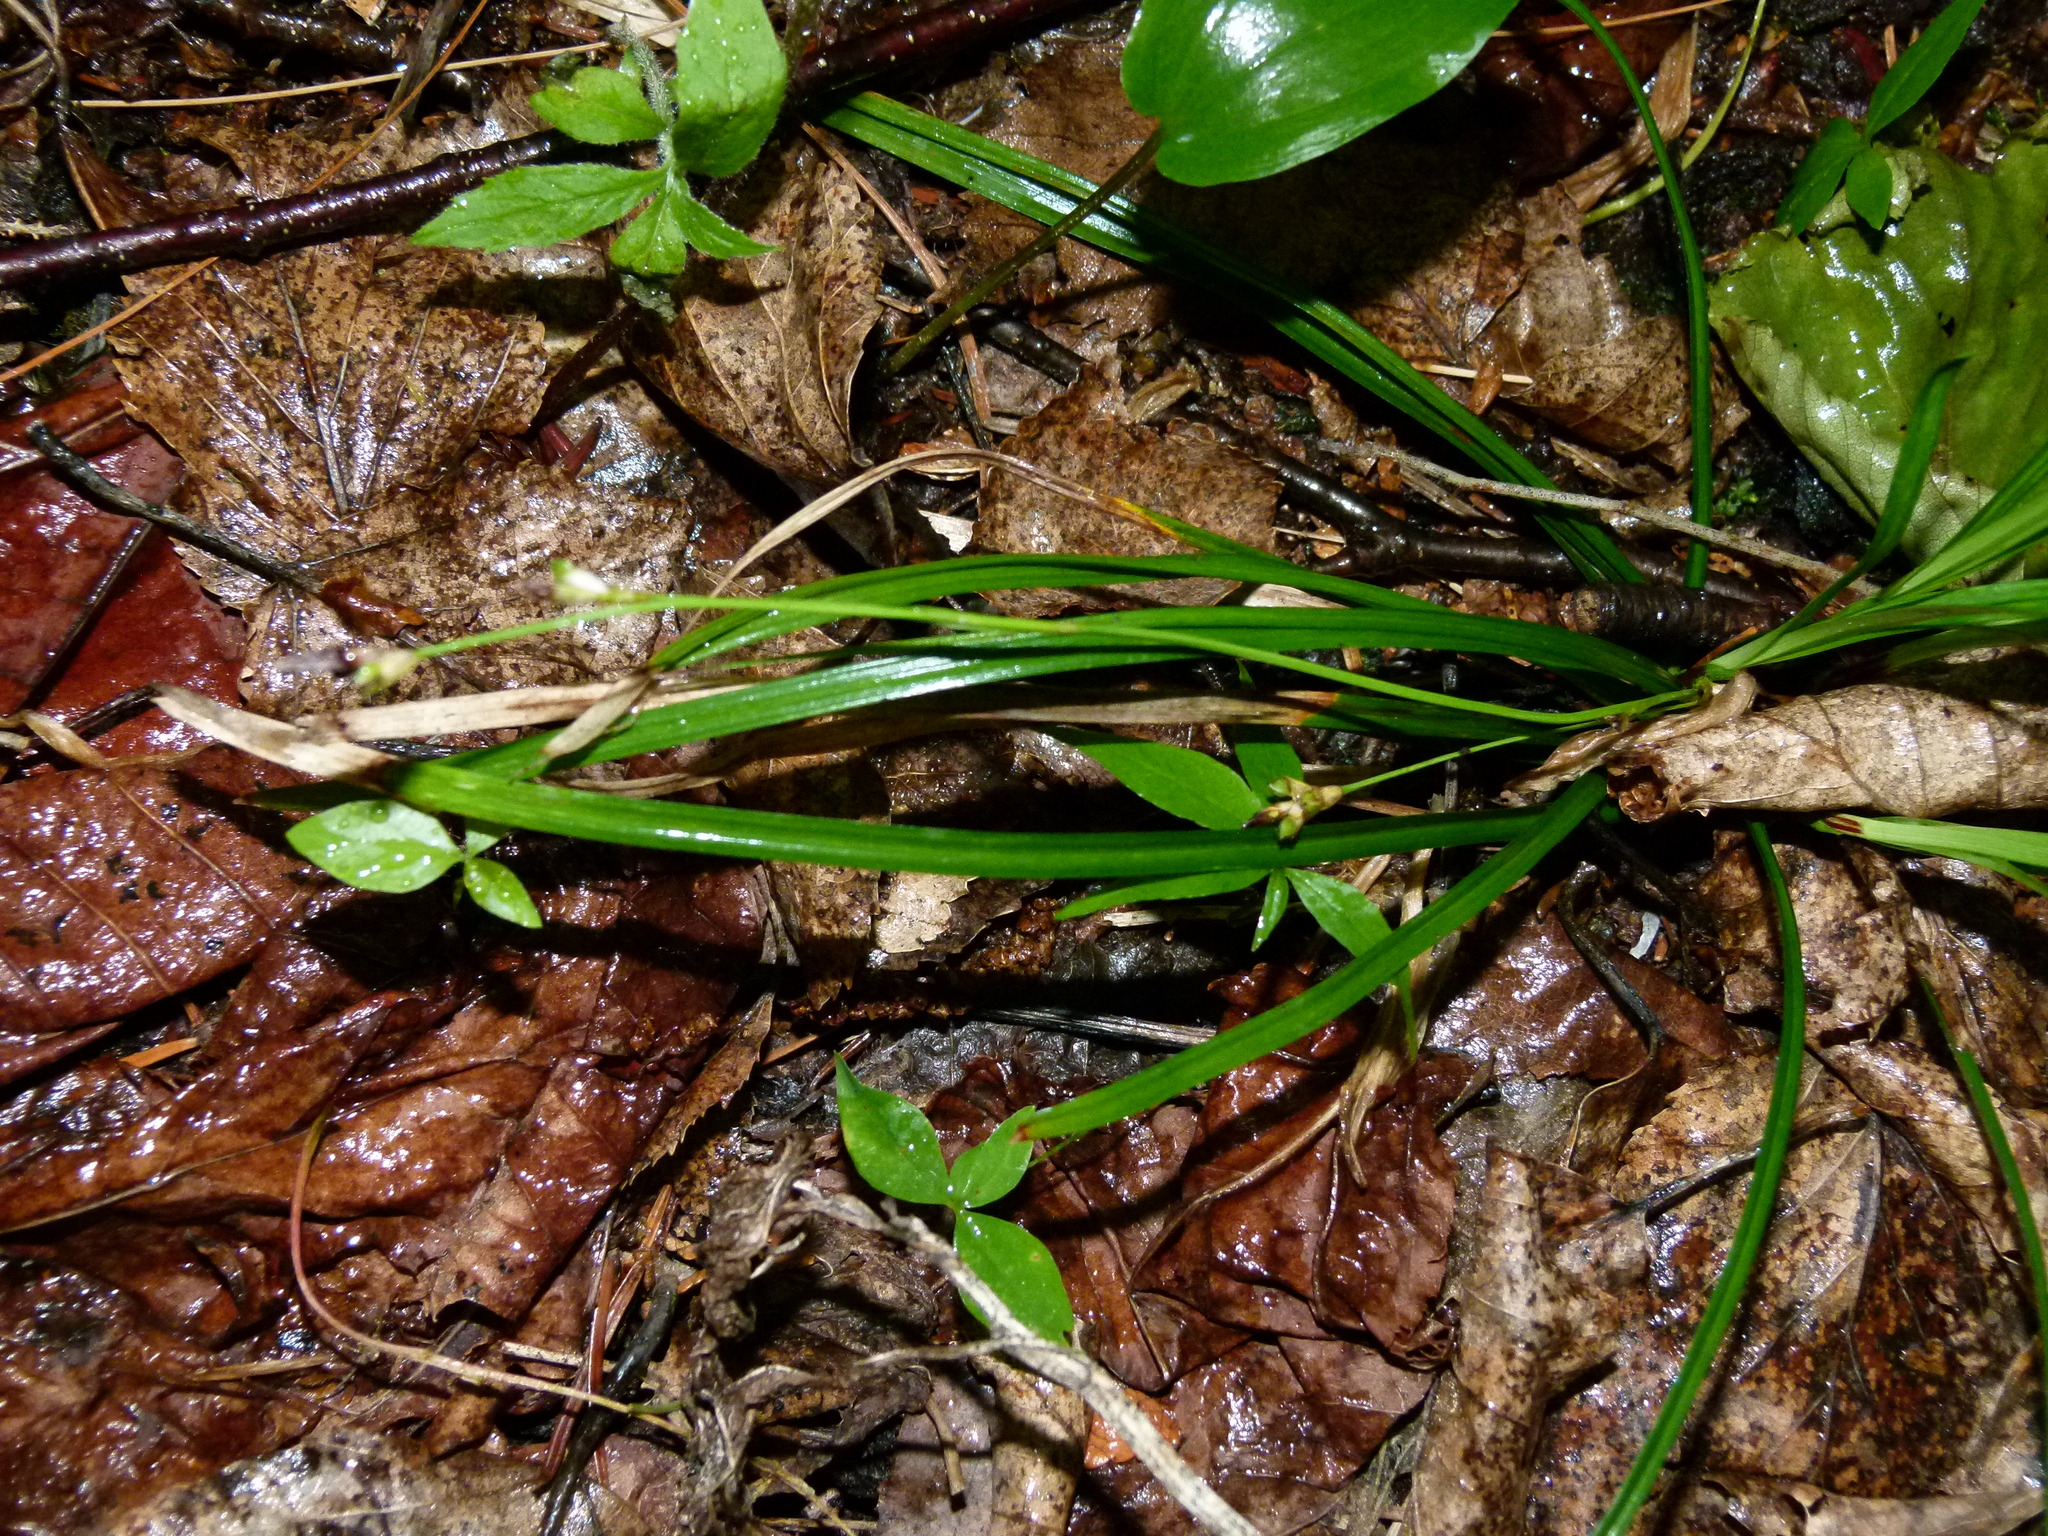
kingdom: Plantae
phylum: Tracheophyta
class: Liliopsida
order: Poales
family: Cyperaceae
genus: Carex
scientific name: Carex echinata
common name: Star sedge
